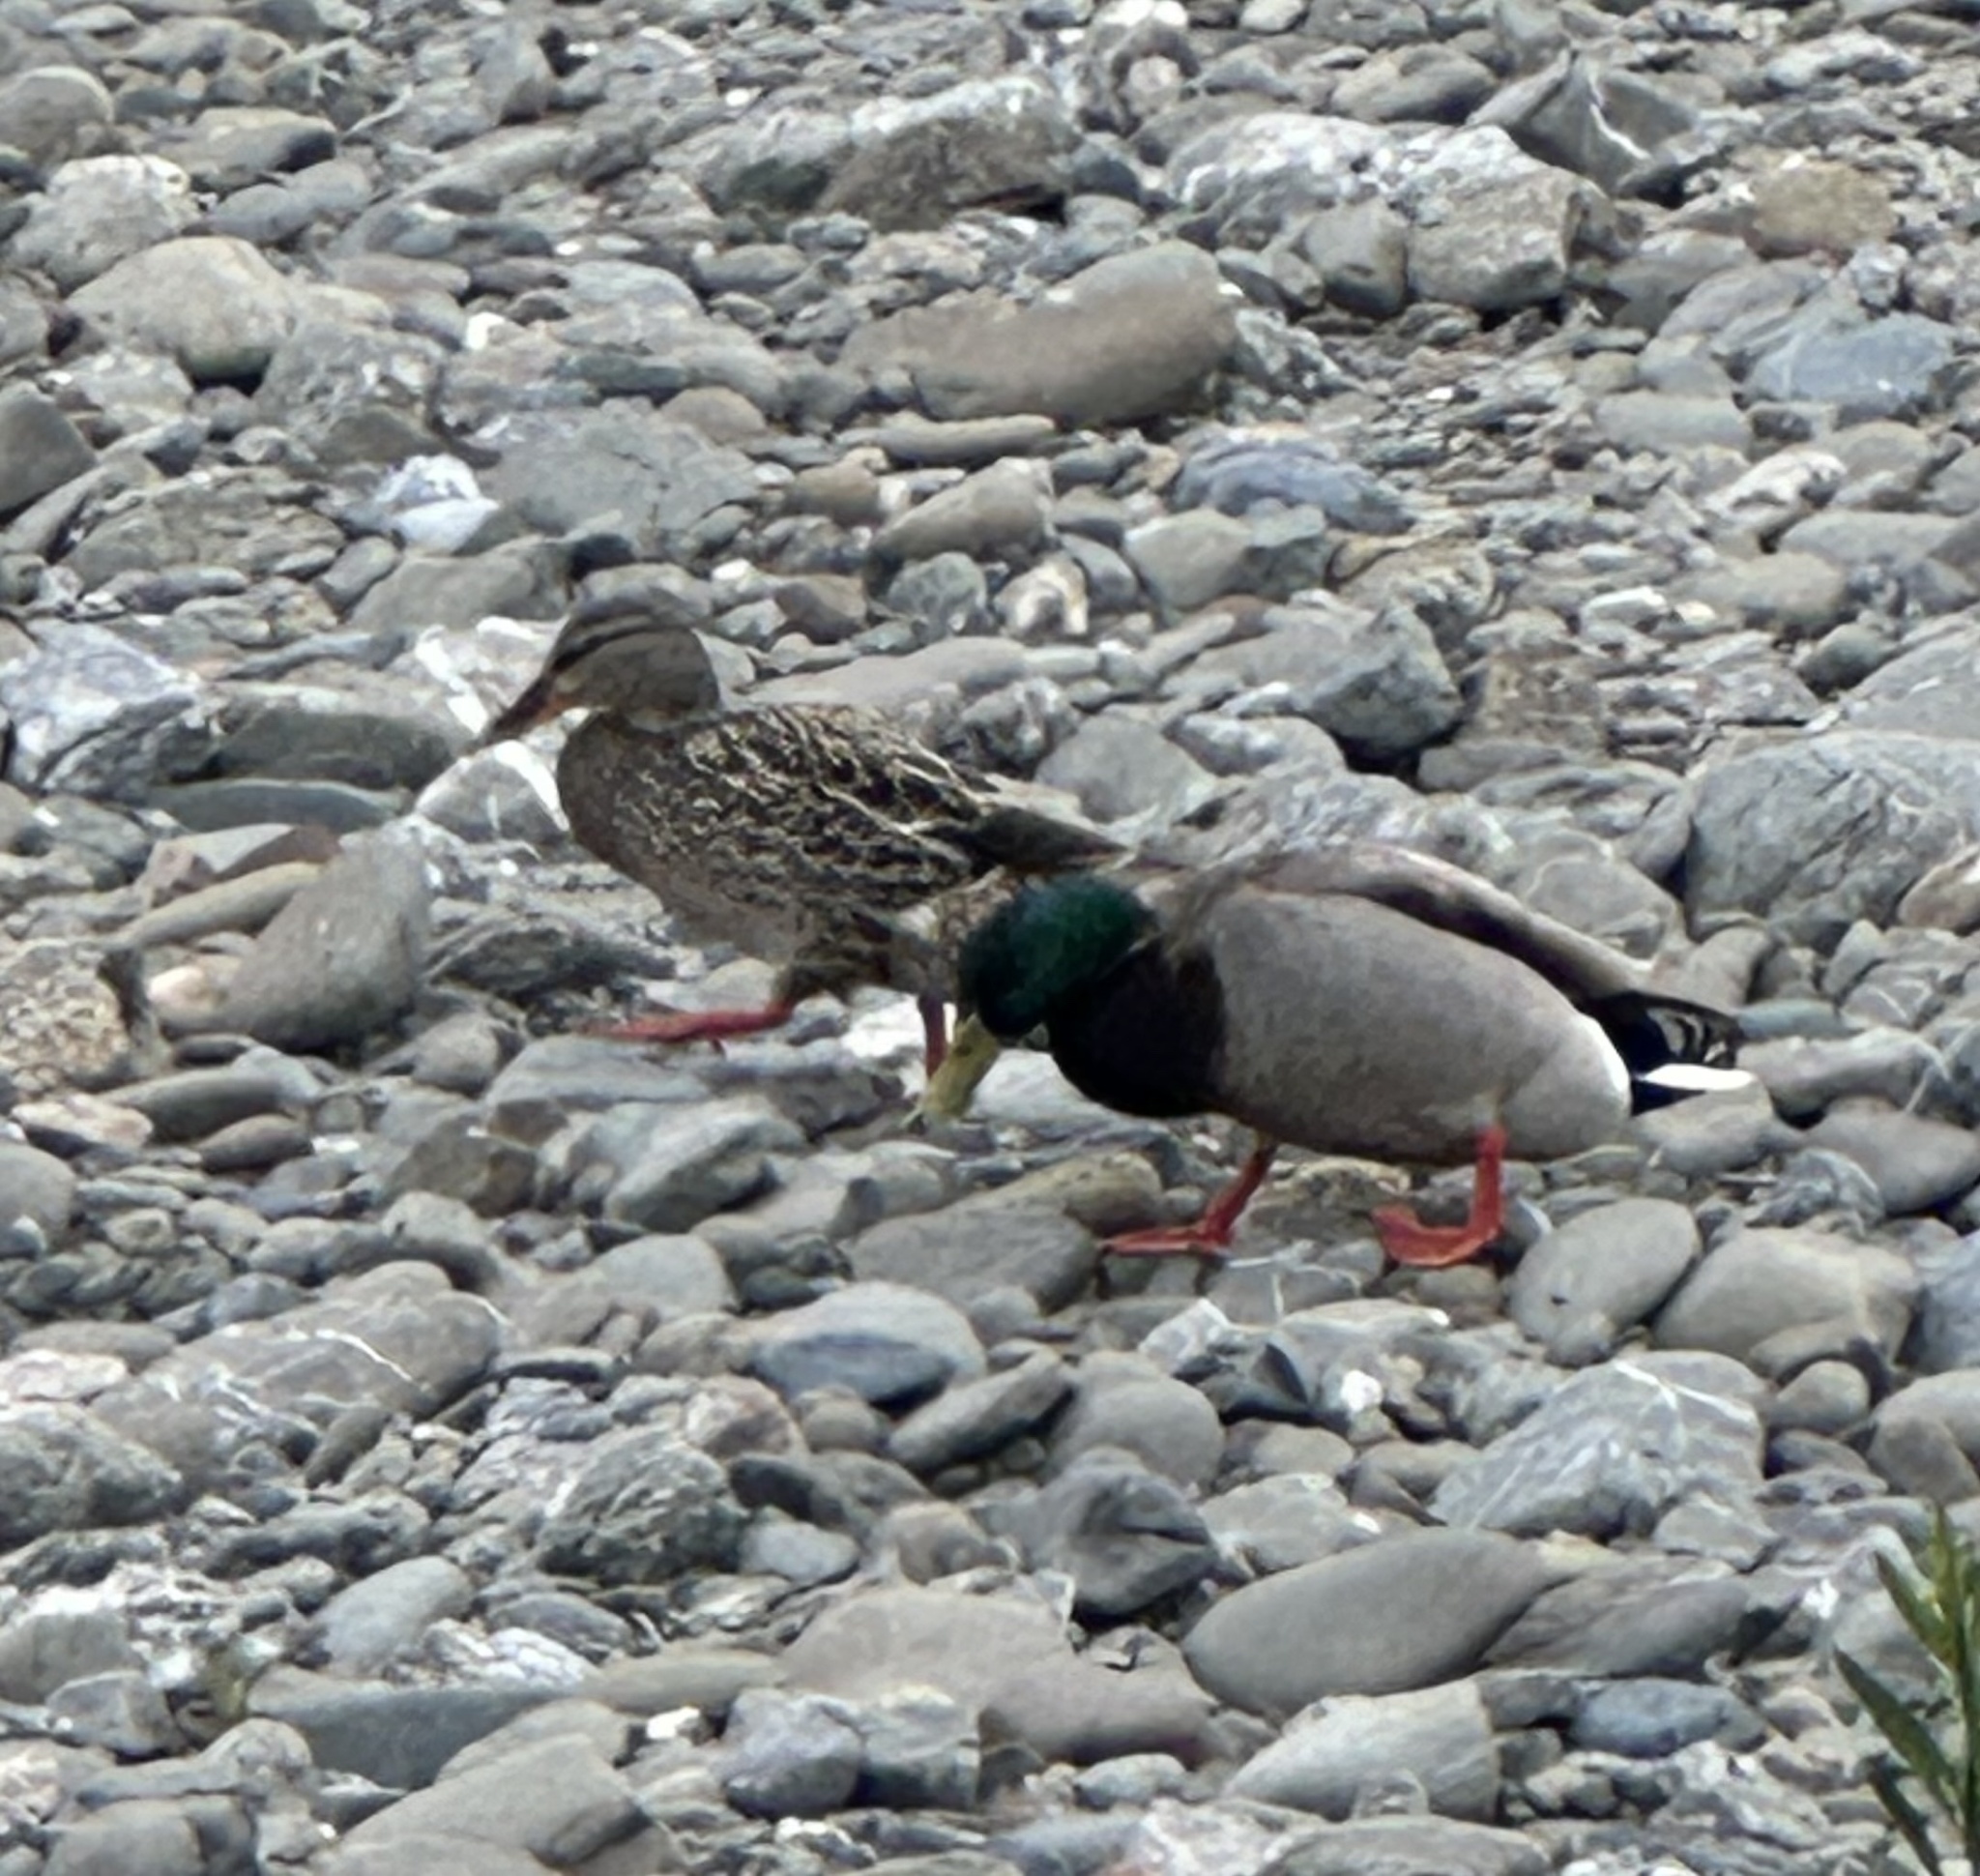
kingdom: Animalia
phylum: Chordata
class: Aves
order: Anseriformes
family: Anatidae
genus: Anas
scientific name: Anas platyrhynchos
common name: Mallard
